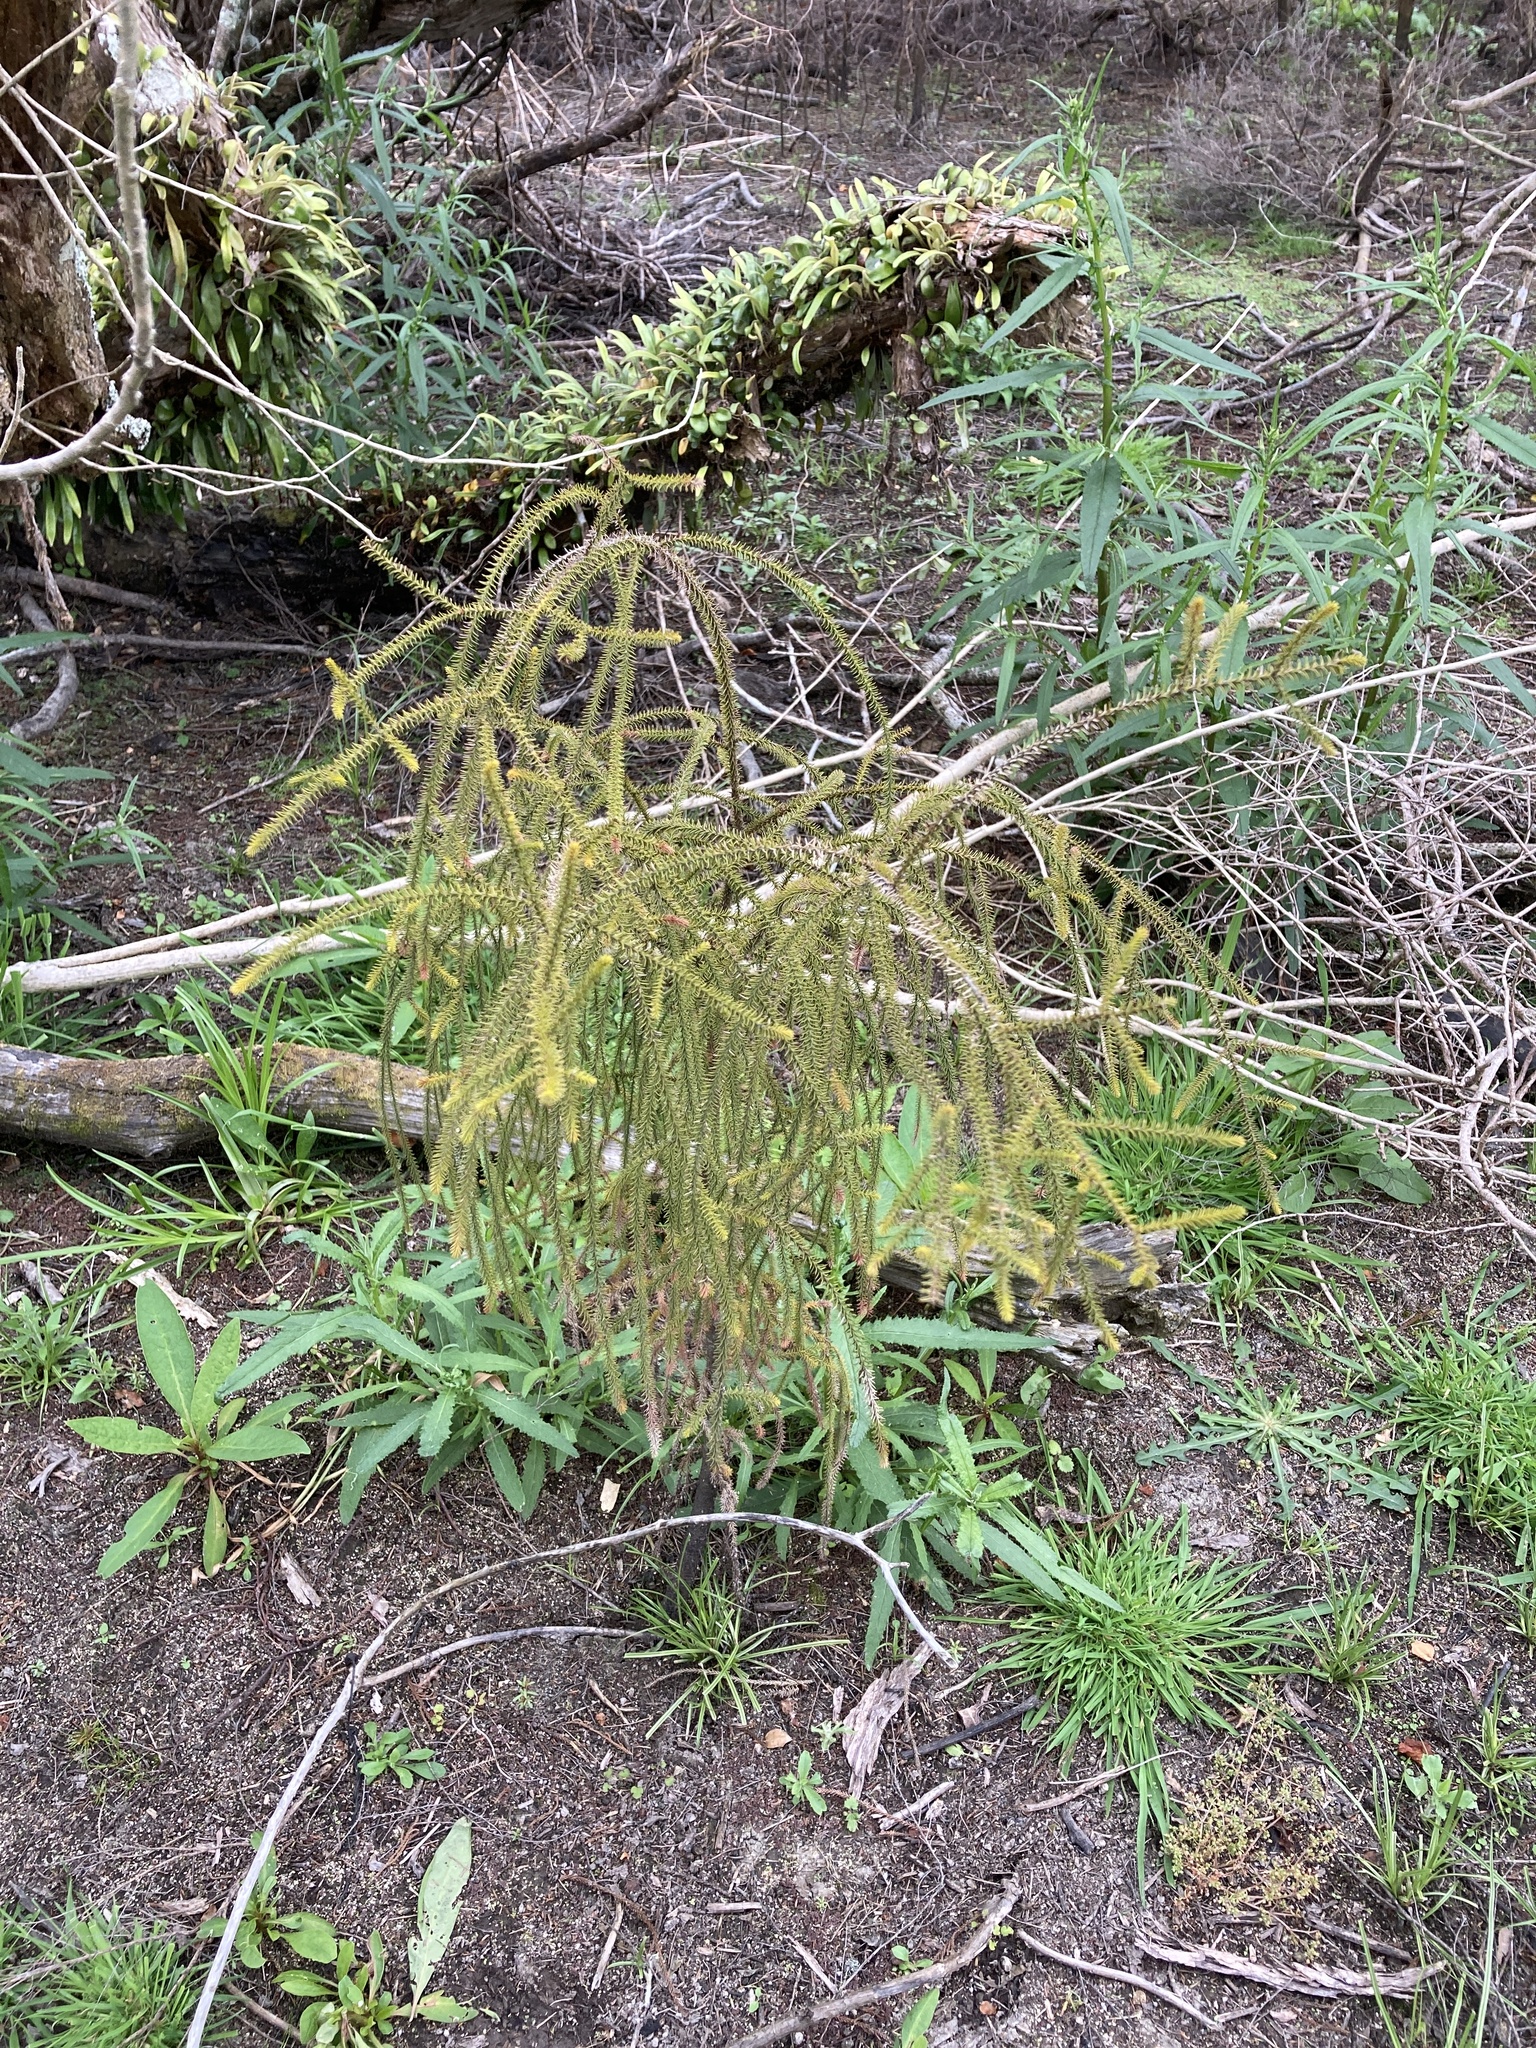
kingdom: Plantae
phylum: Tracheophyta
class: Pinopsida
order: Pinales
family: Podocarpaceae
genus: Dacrydium
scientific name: Dacrydium cupressinum
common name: Red pine
